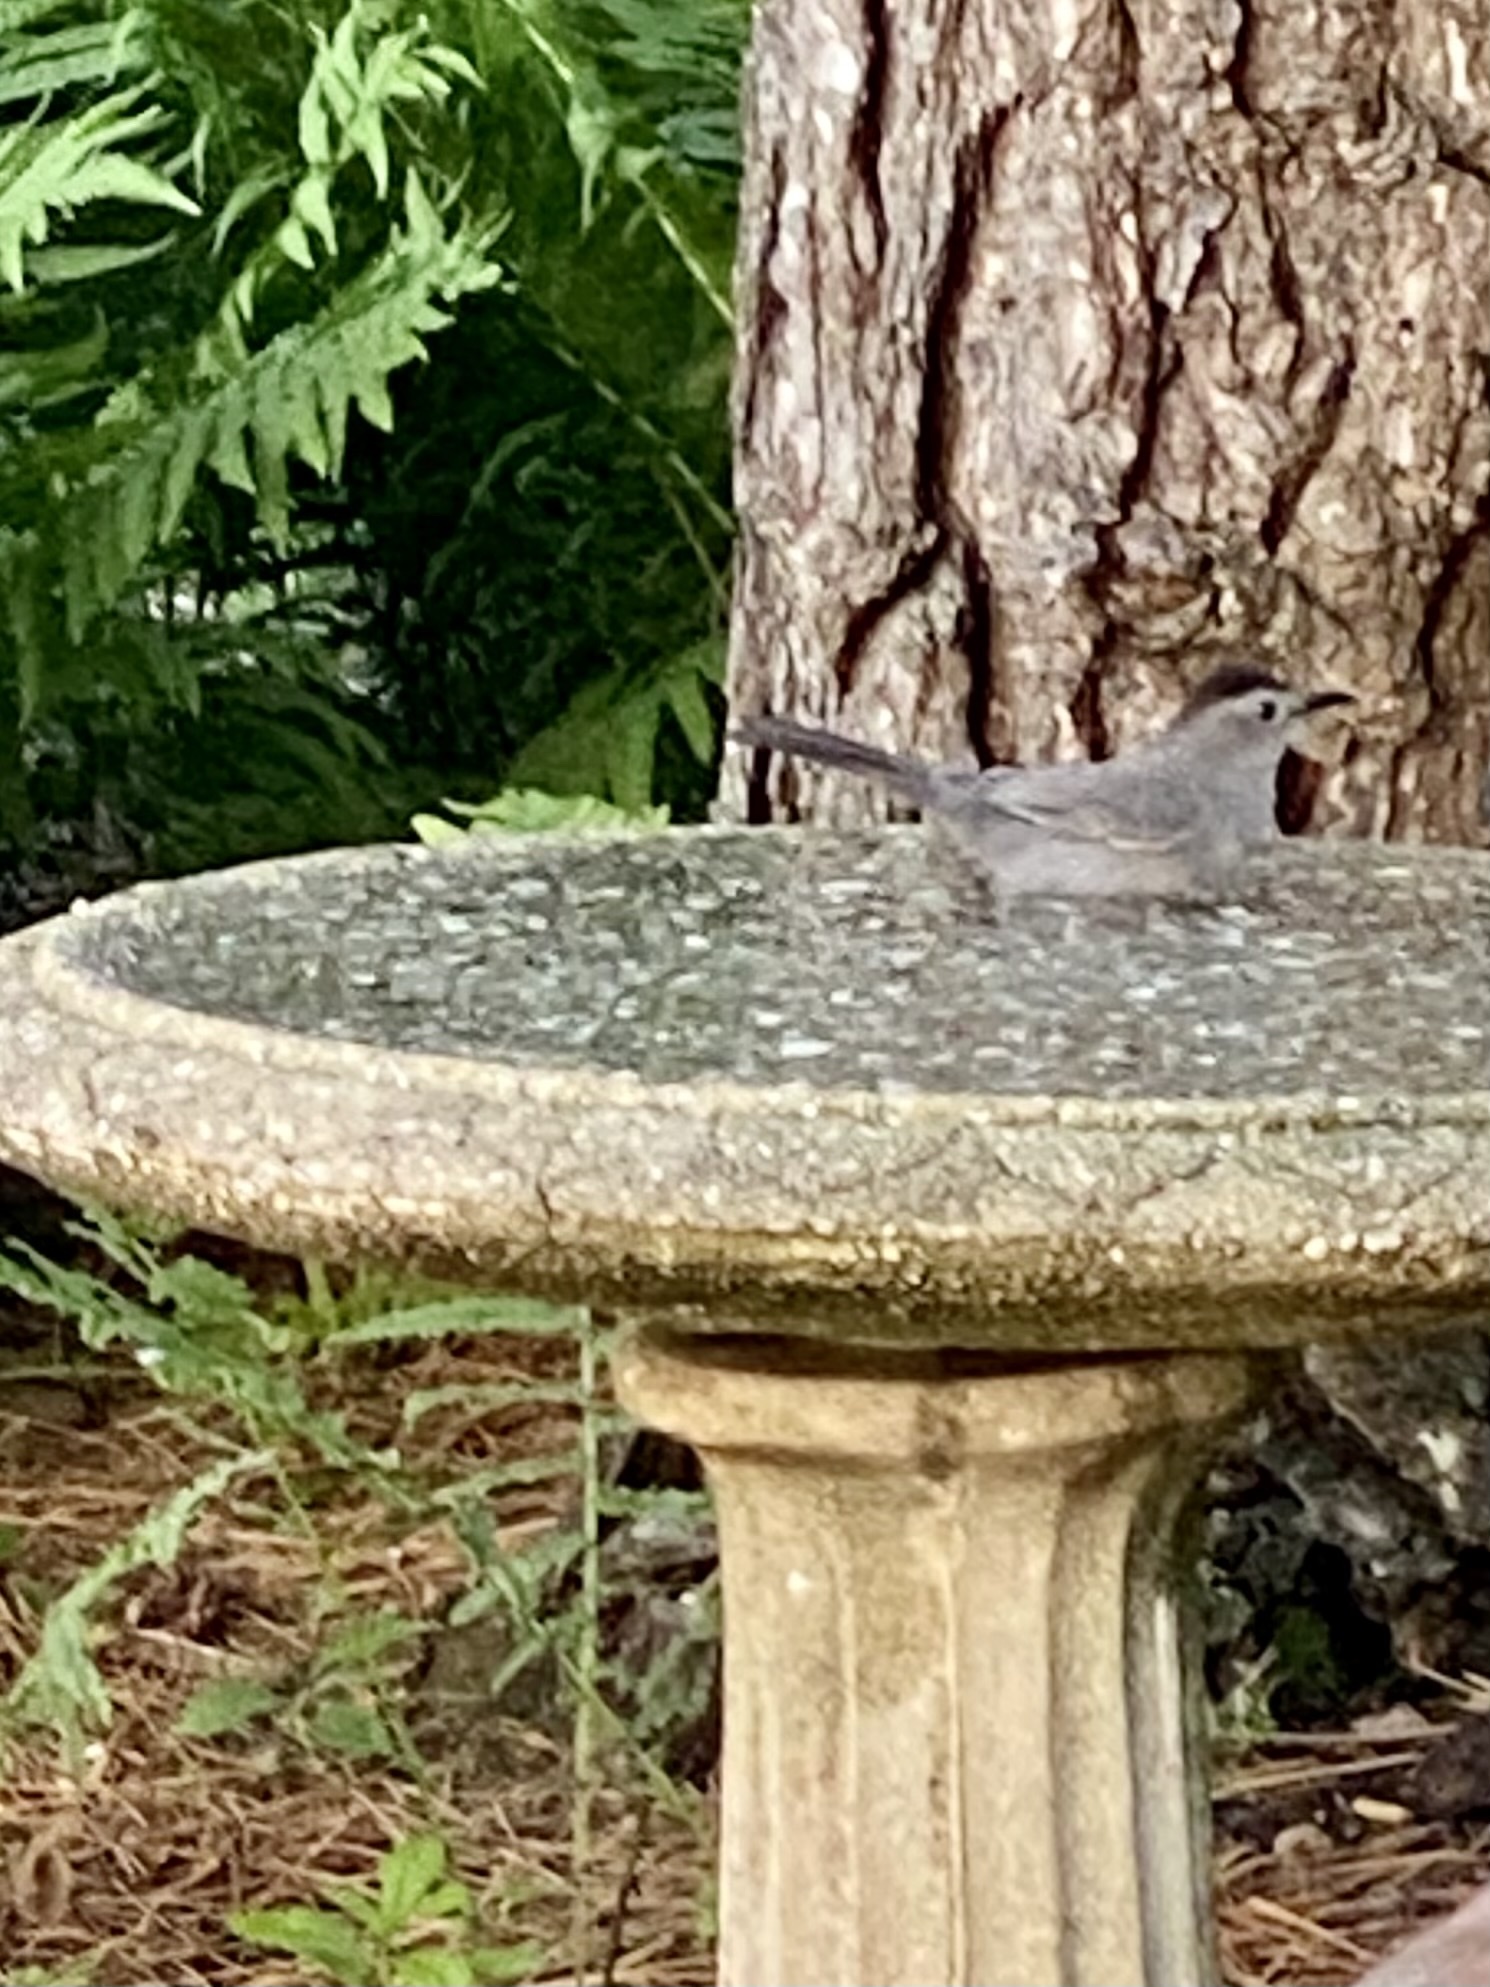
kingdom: Animalia
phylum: Chordata
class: Aves
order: Passeriformes
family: Mimidae
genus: Dumetella
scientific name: Dumetella carolinensis
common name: Gray catbird
